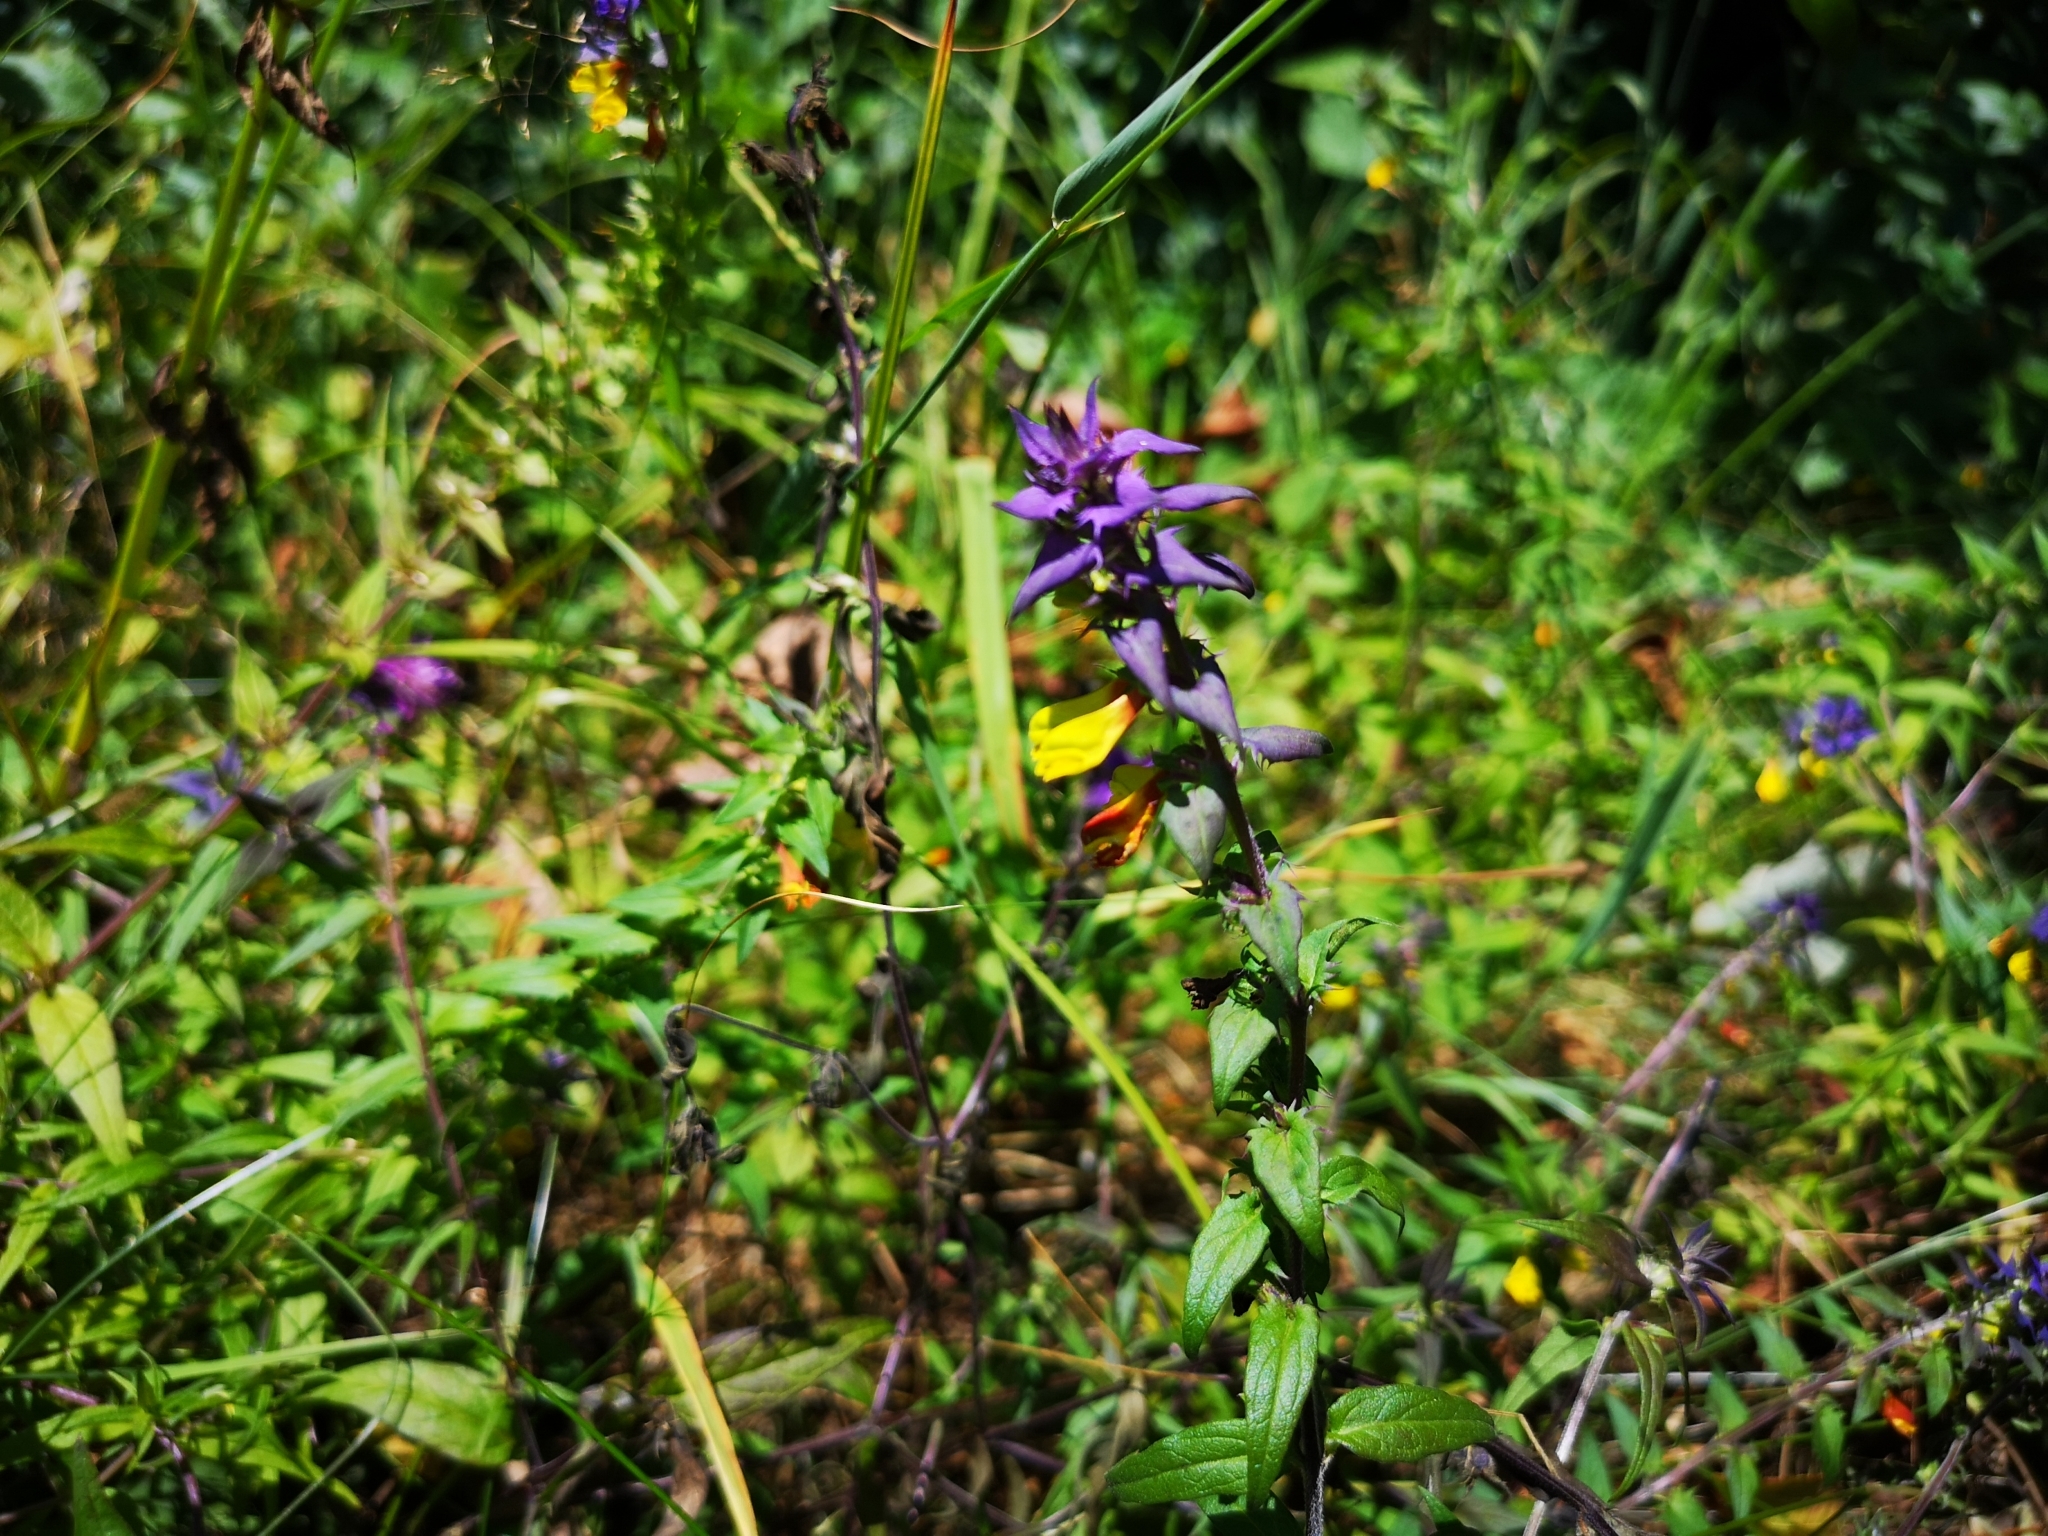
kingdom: Plantae
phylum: Tracheophyta
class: Magnoliopsida
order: Lamiales
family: Orobanchaceae
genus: Melampyrum
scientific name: Melampyrum nemorosum
